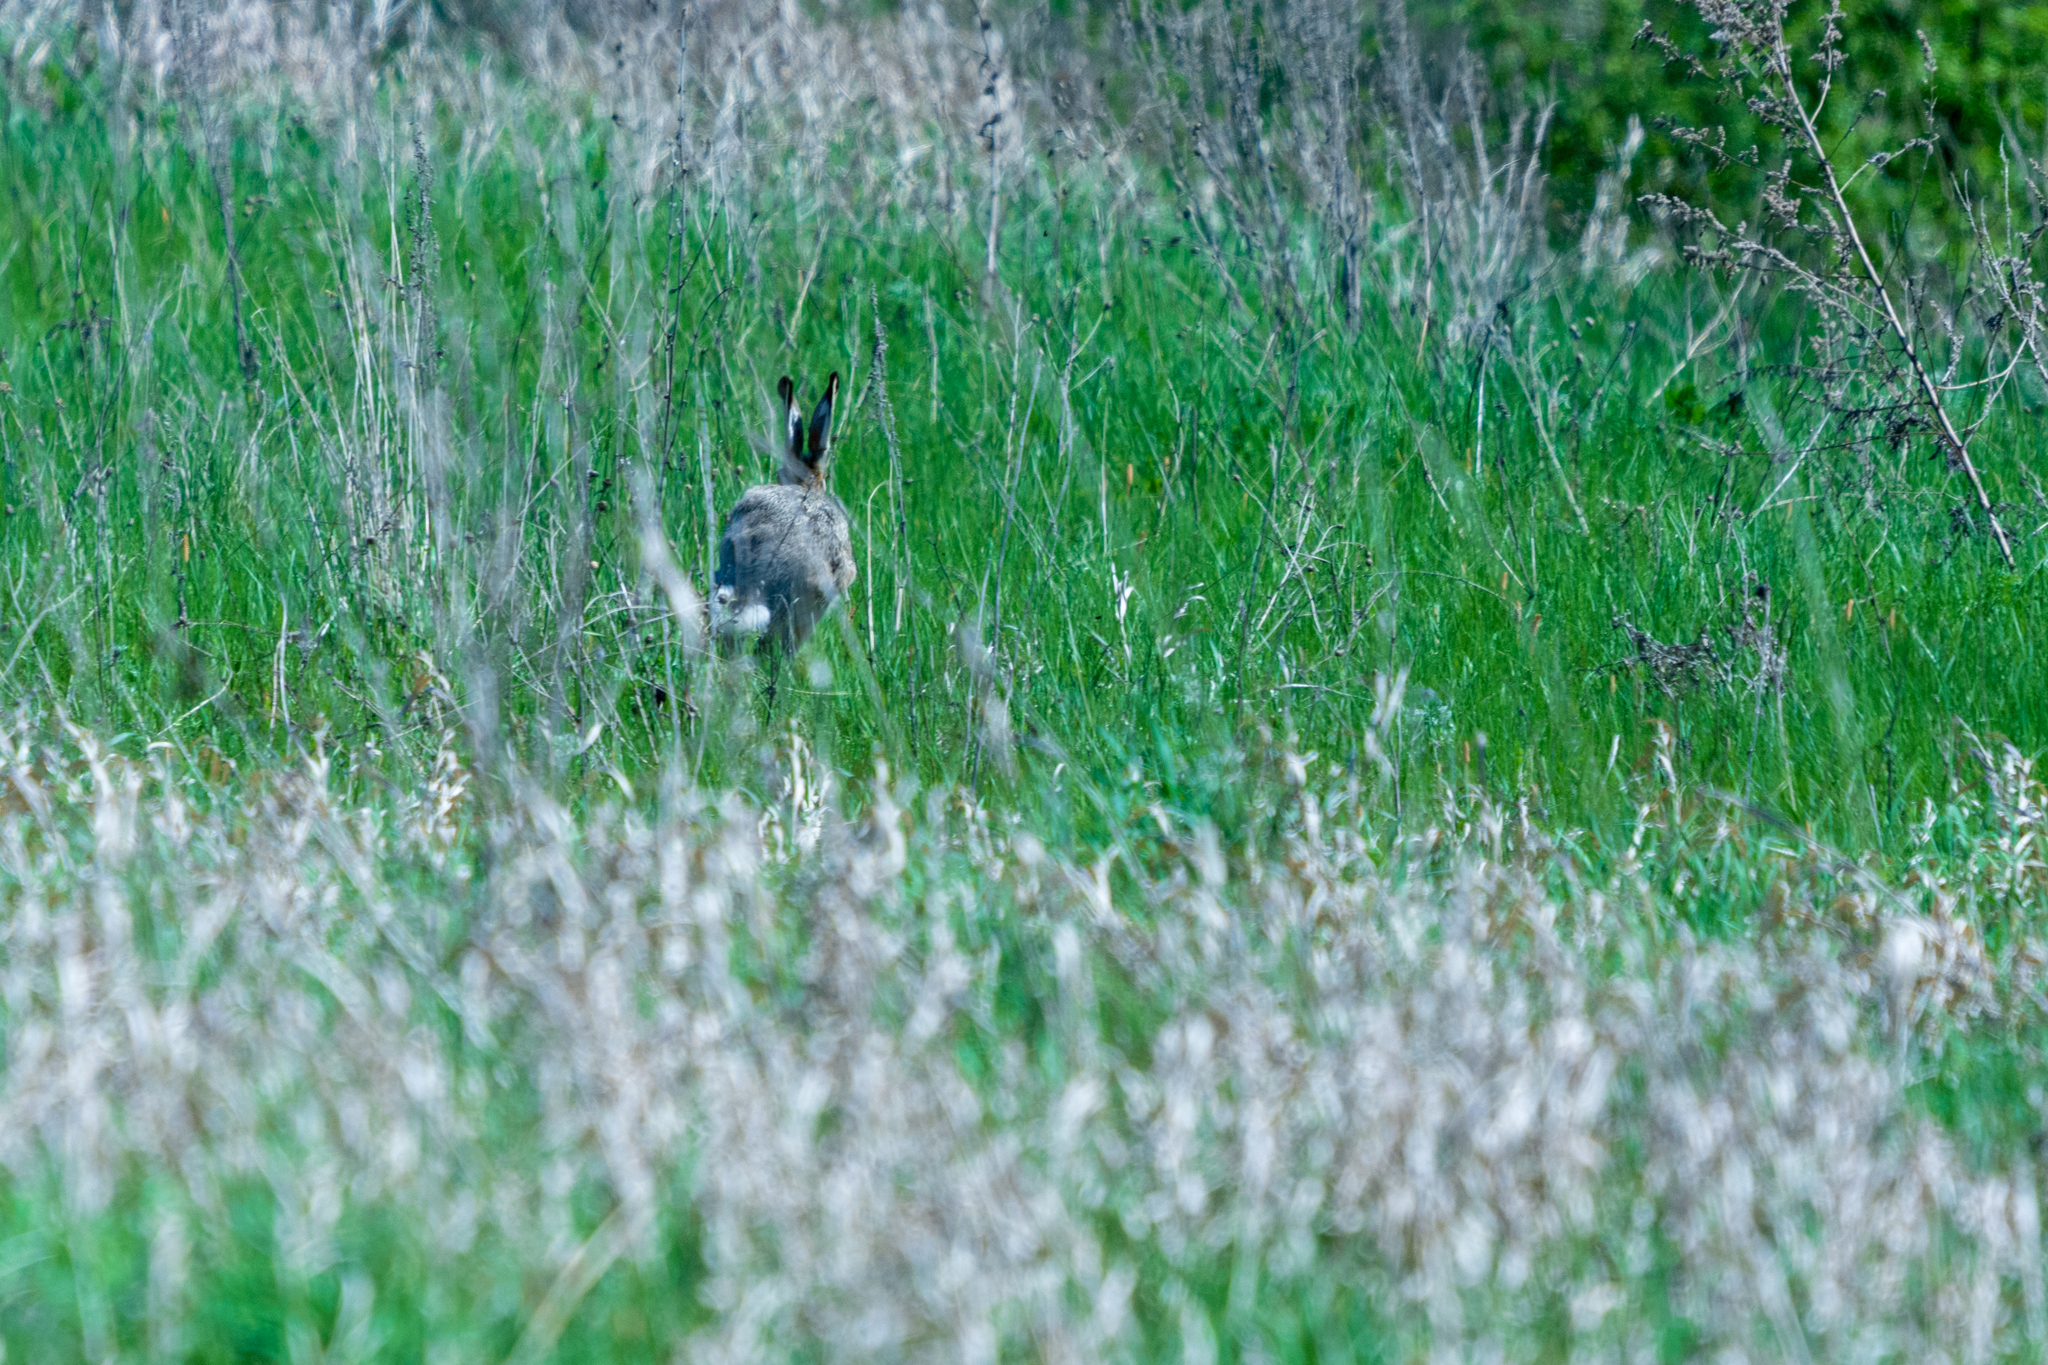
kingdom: Animalia
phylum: Chordata
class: Mammalia
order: Lagomorpha
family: Leporidae
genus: Lepus
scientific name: Lepus europaeus
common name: European hare
